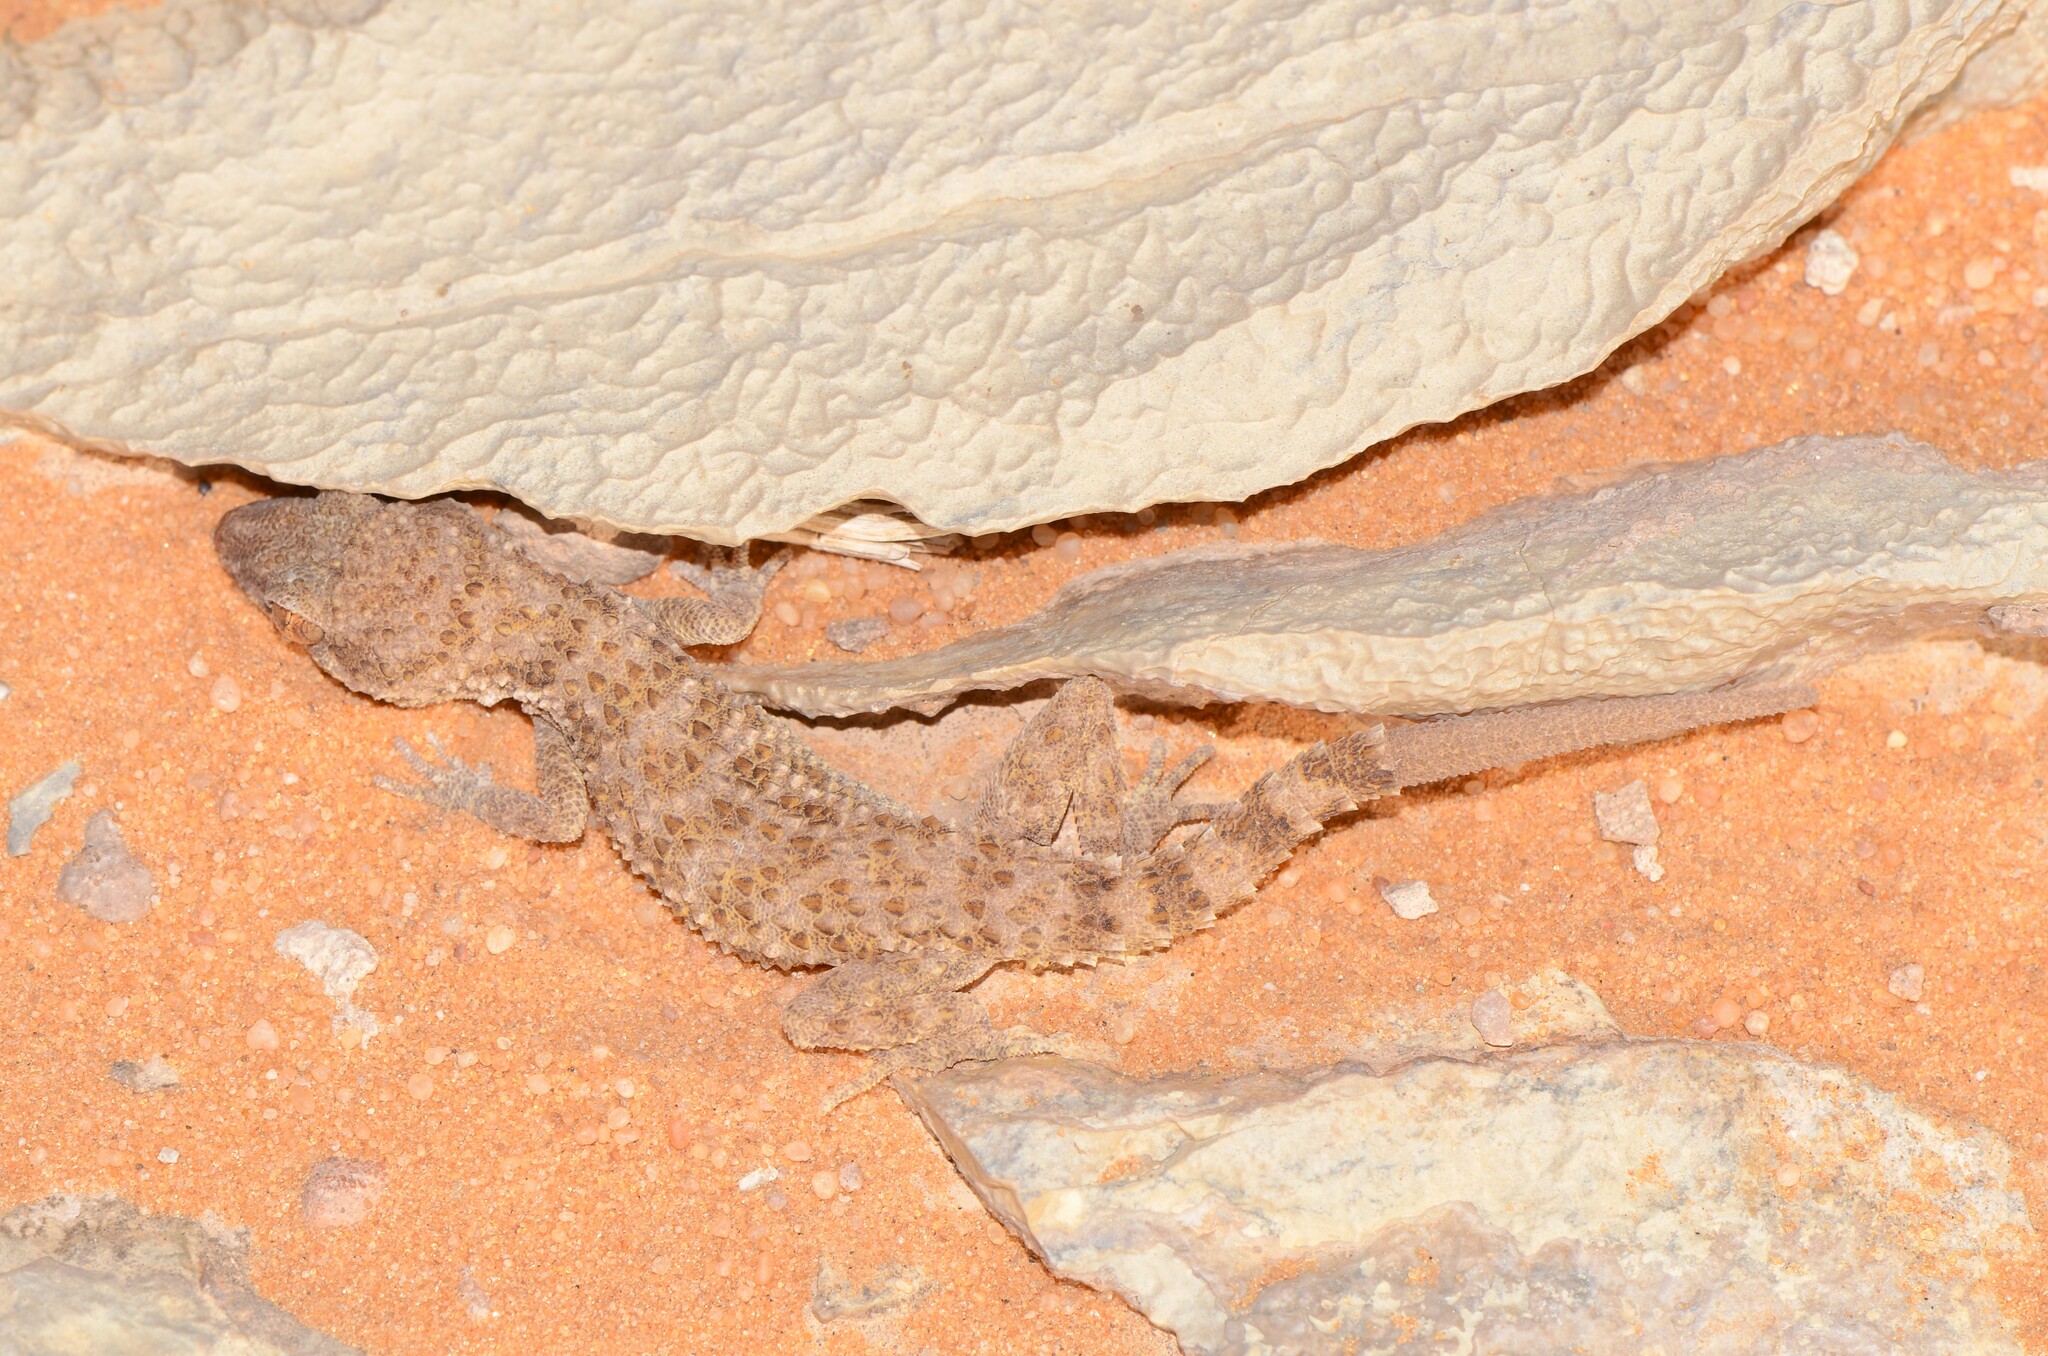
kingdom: Animalia
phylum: Chordata
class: Squamata
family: Gekkonidae
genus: Bunopus
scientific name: Bunopus tuberculatus
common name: Southern tuberculated gecko
